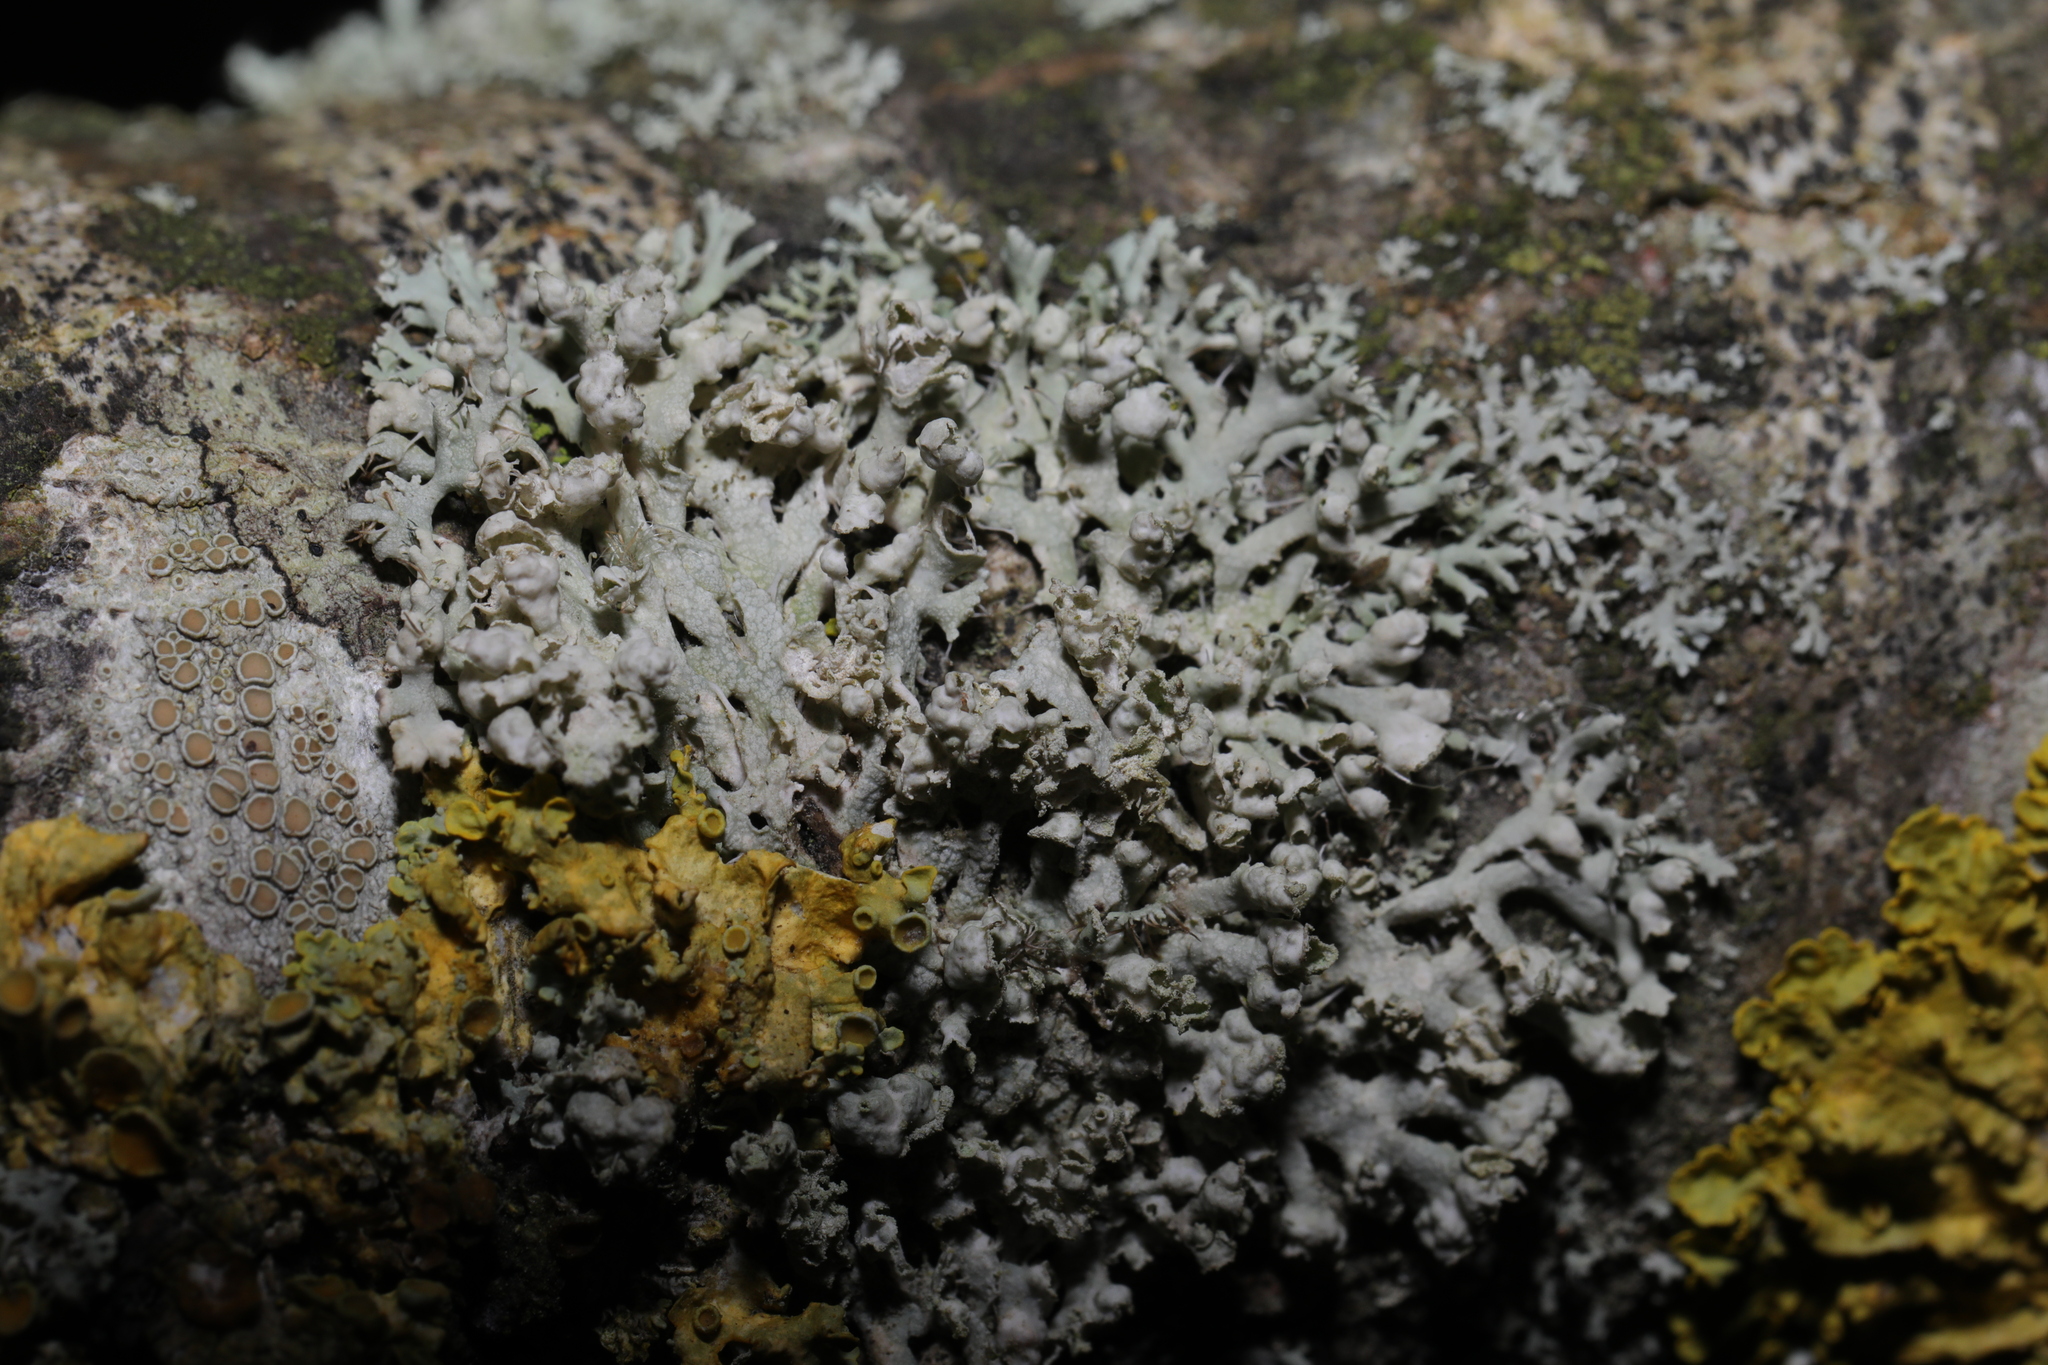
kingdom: Fungi
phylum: Ascomycota
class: Lecanoromycetes
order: Caliciales
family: Physciaceae
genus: Physcia
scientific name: Physcia adscendens
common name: Hooded rosette lichen
